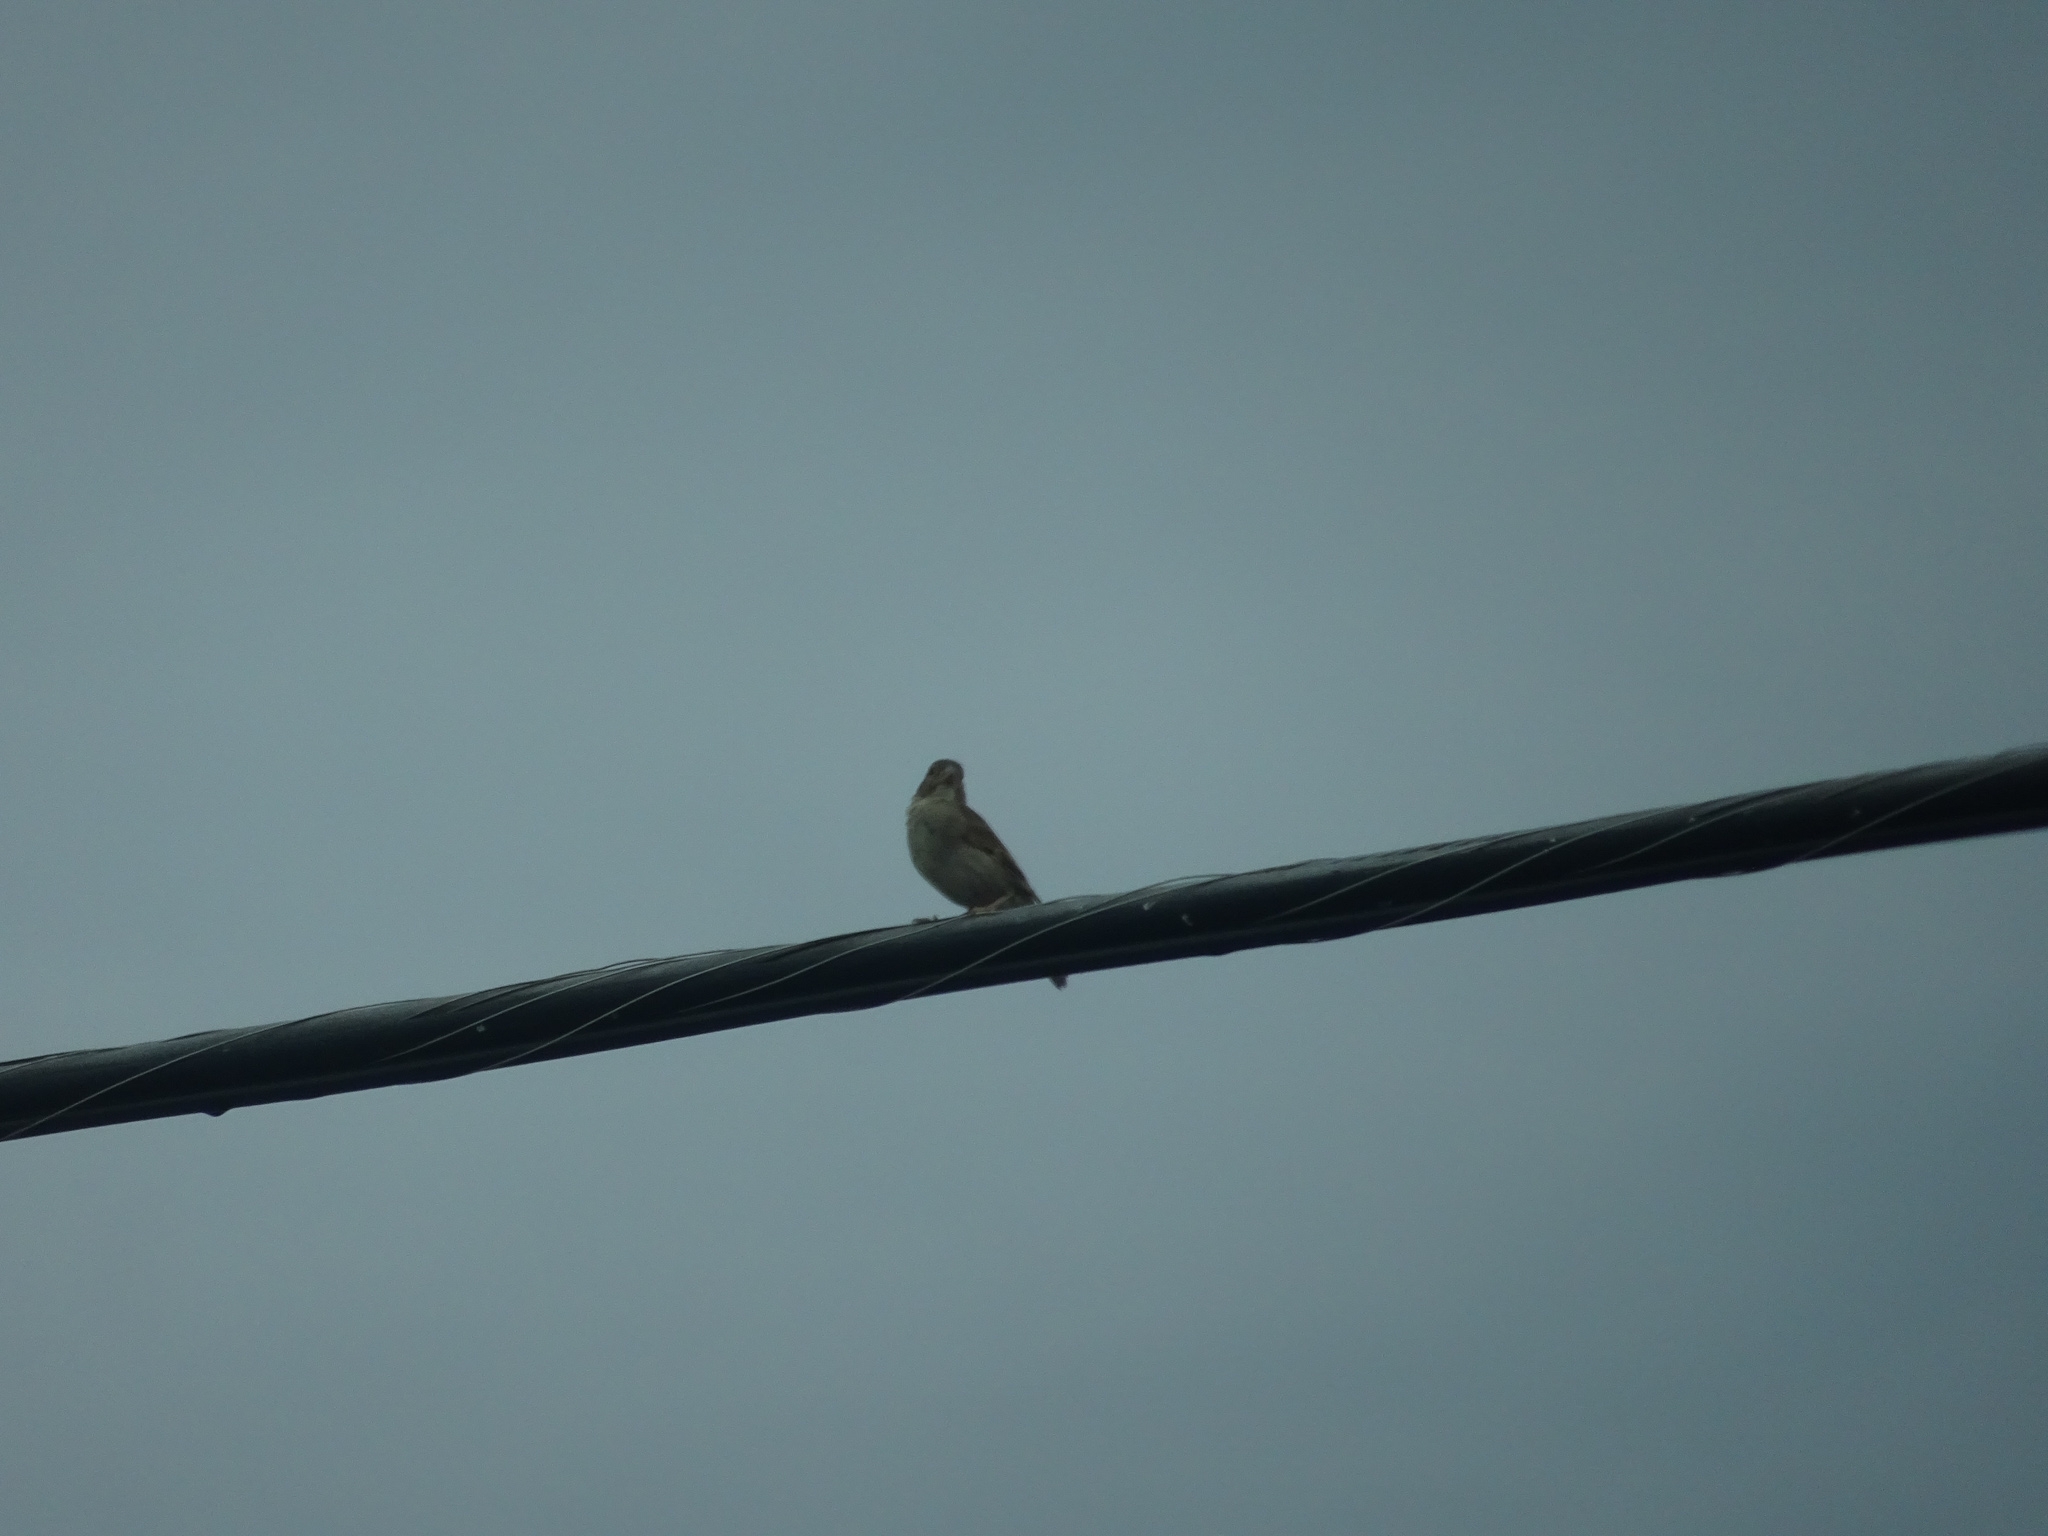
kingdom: Animalia
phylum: Chordata
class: Aves
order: Passeriformes
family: Passeridae
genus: Passer
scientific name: Passer domesticus
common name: House sparrow
